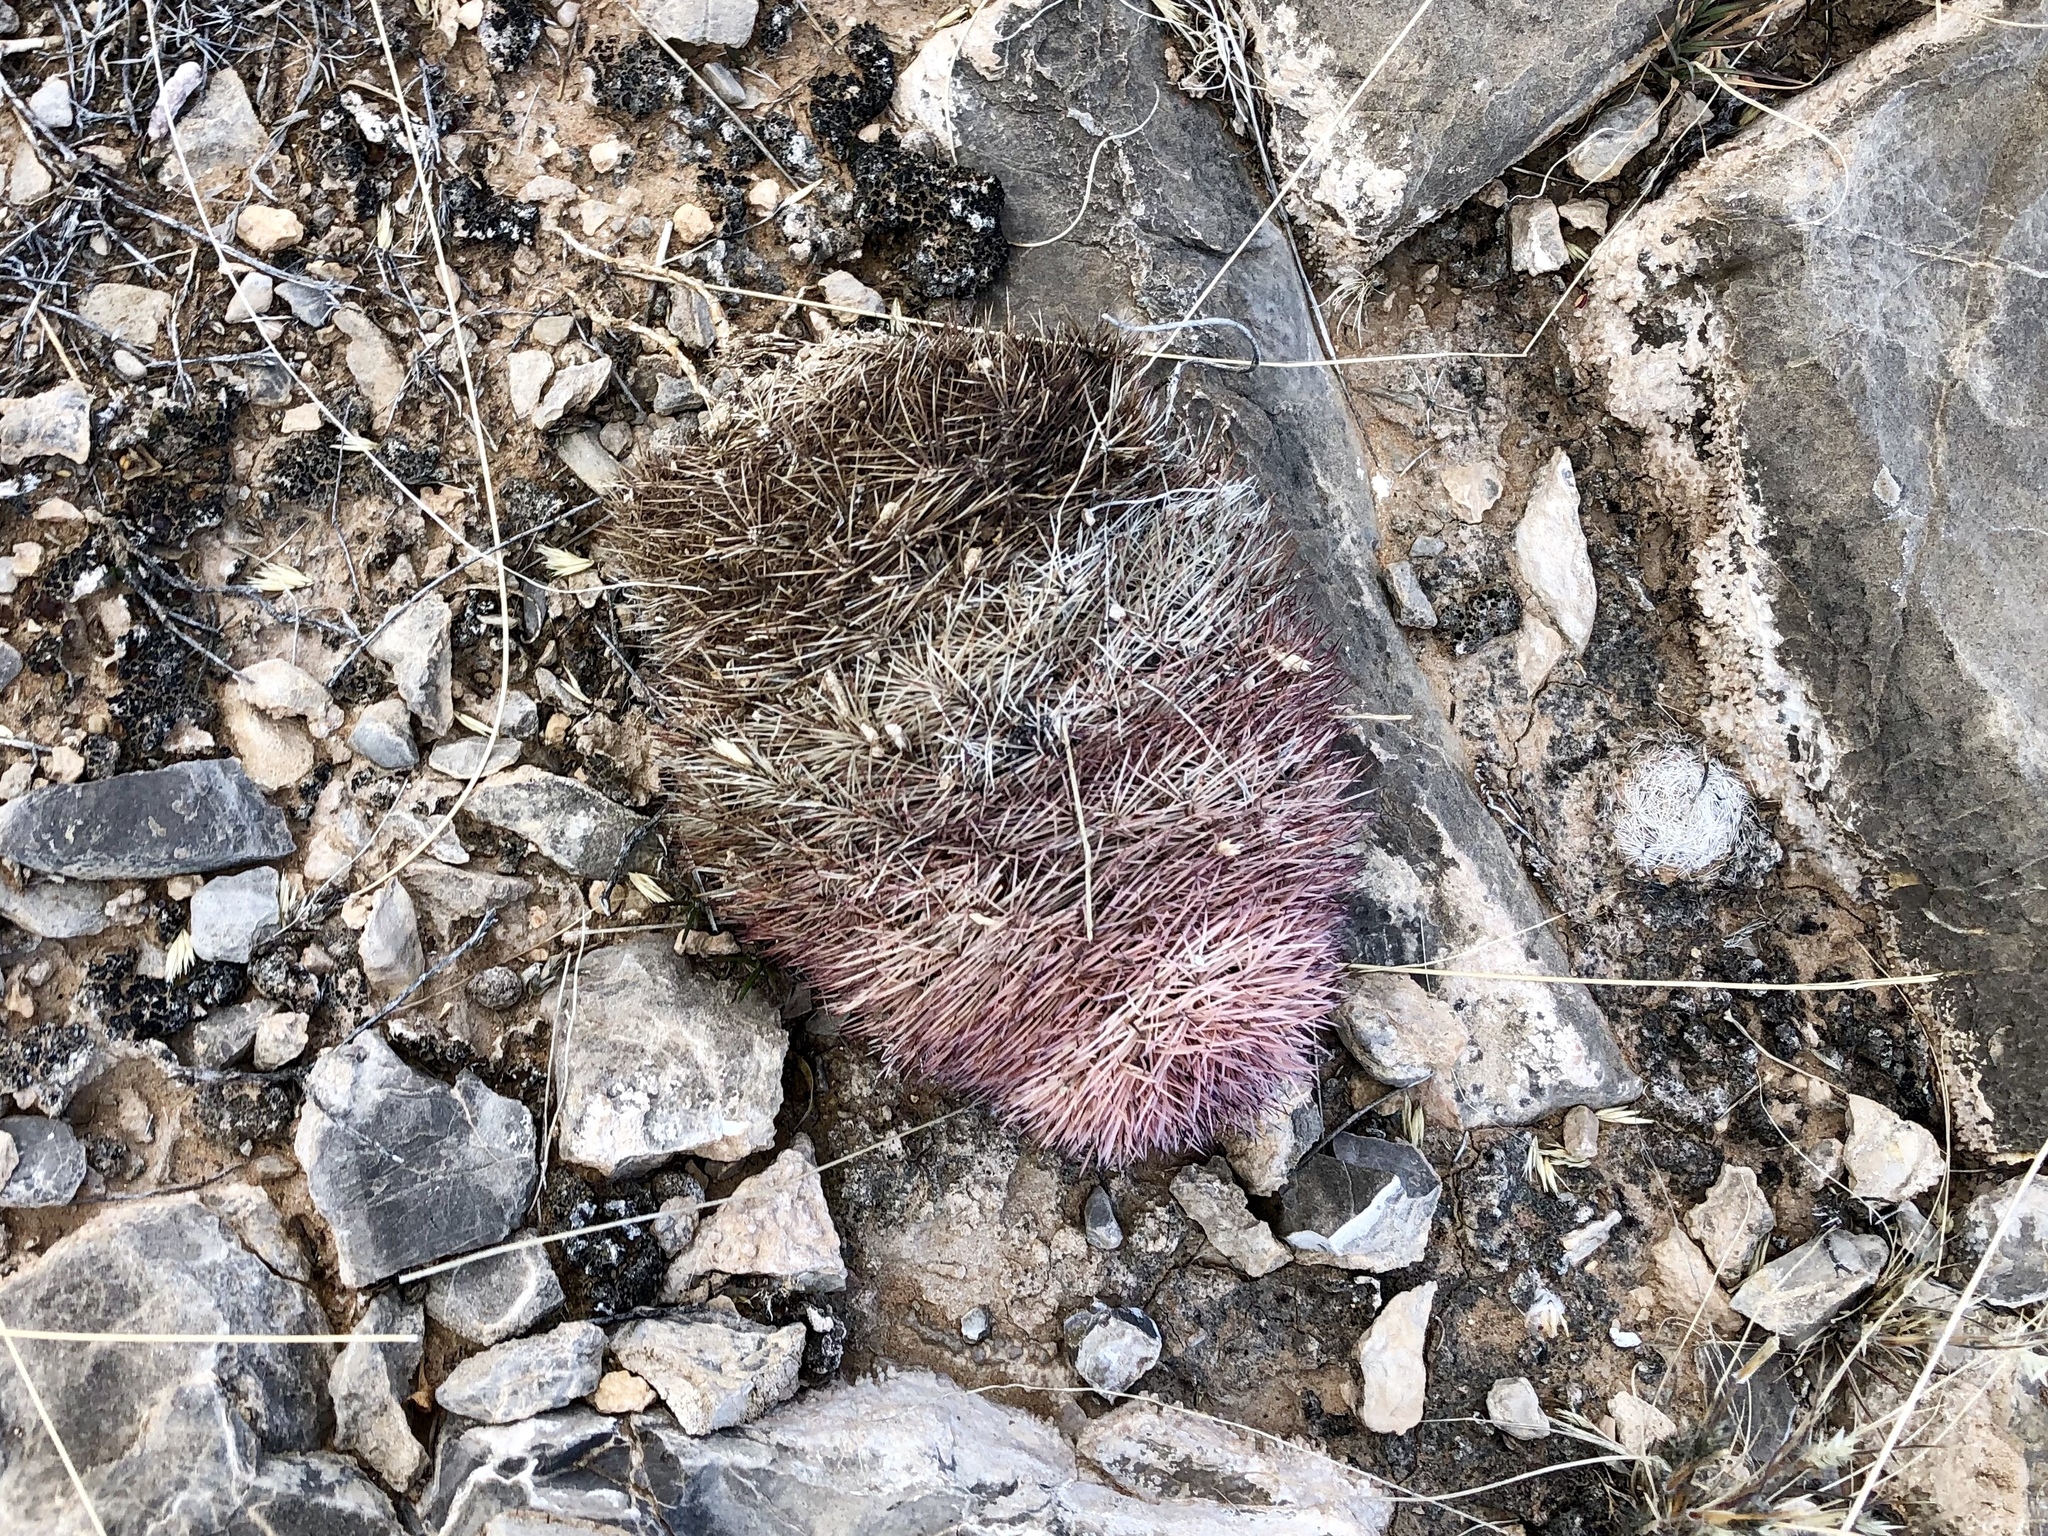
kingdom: Plantae
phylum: Tracheophyta
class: Magnoliopsida
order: Caryophyllales
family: Cactaceae
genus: Echinocereus
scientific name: Echinocereus dasyacanthus
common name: Spiny hedgehog cactus
